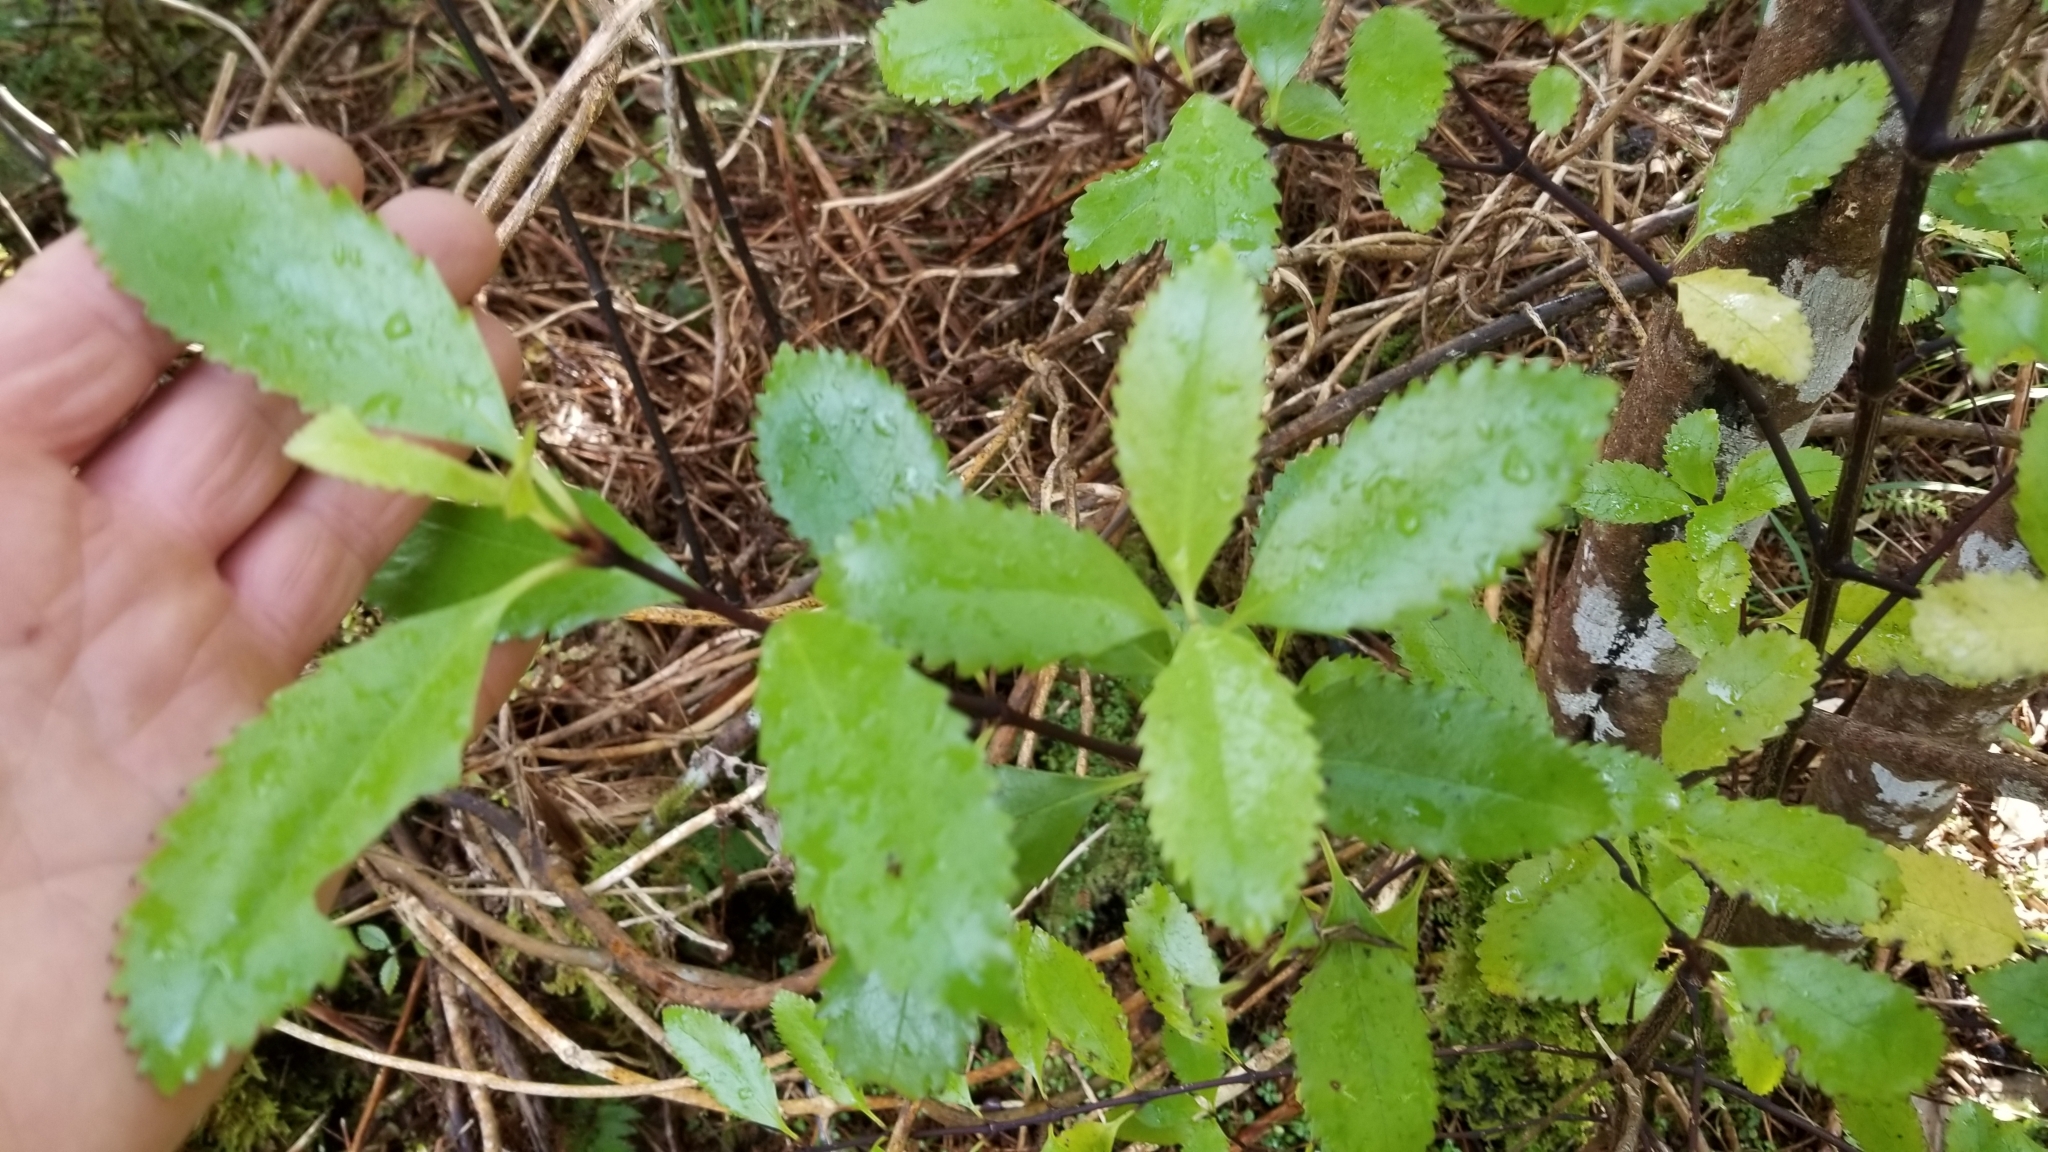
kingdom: Plantae
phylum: Tracheophyta
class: Magnoliopsida
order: Chloranthales
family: Chloranthaceae
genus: Ascarina
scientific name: Ascarina lucida
